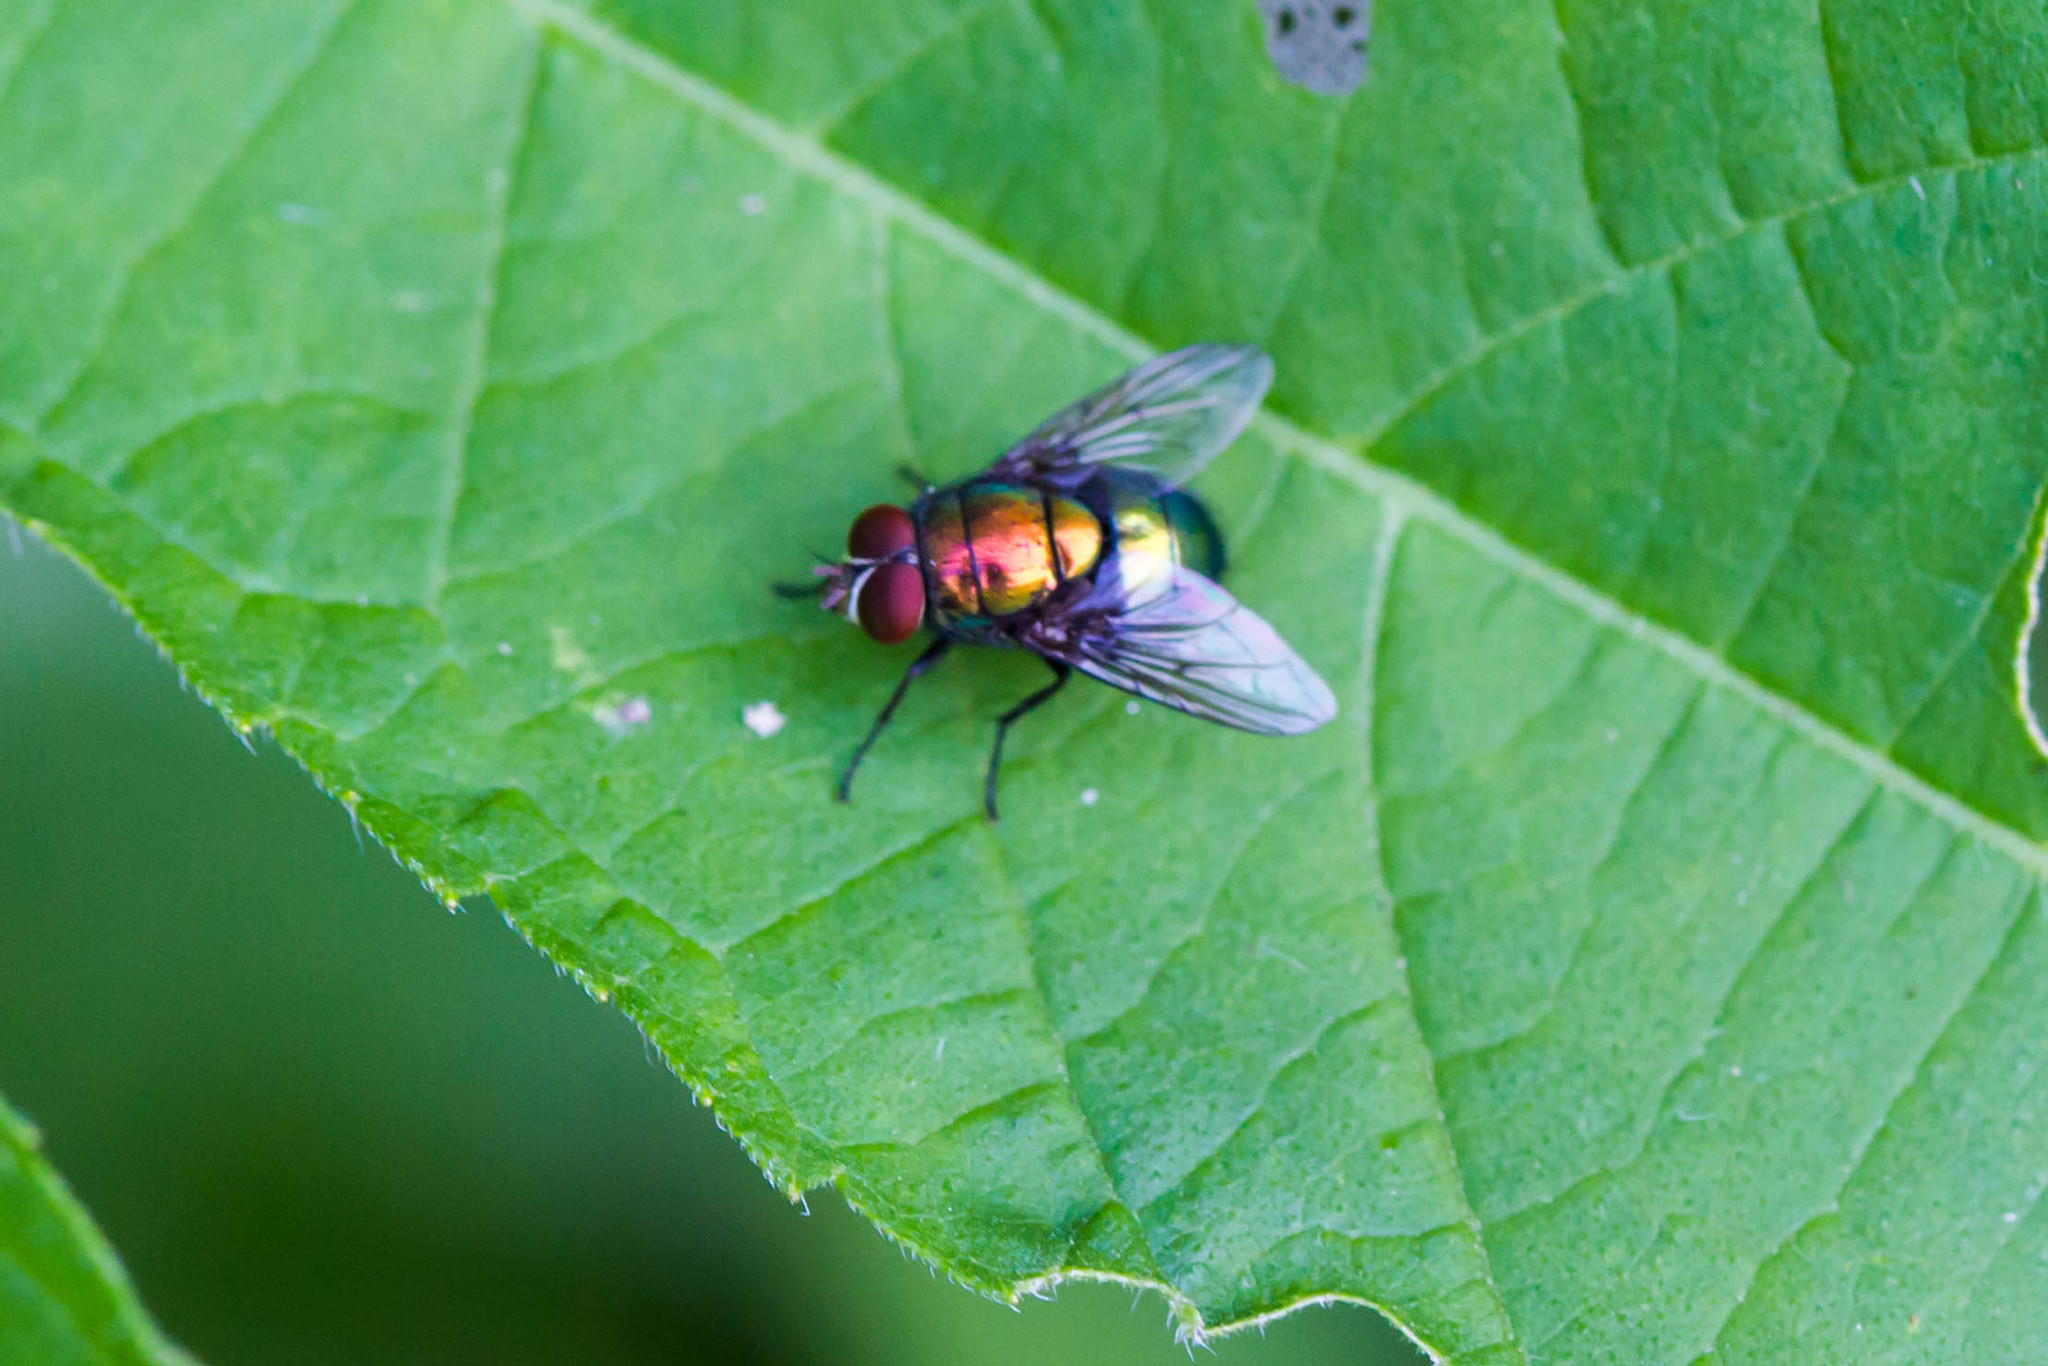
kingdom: Animalia
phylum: Arthropoda
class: Insecta
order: Diptera
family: Calliphoridae
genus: Lucilia
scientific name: Lucilia caeruleiviridis
